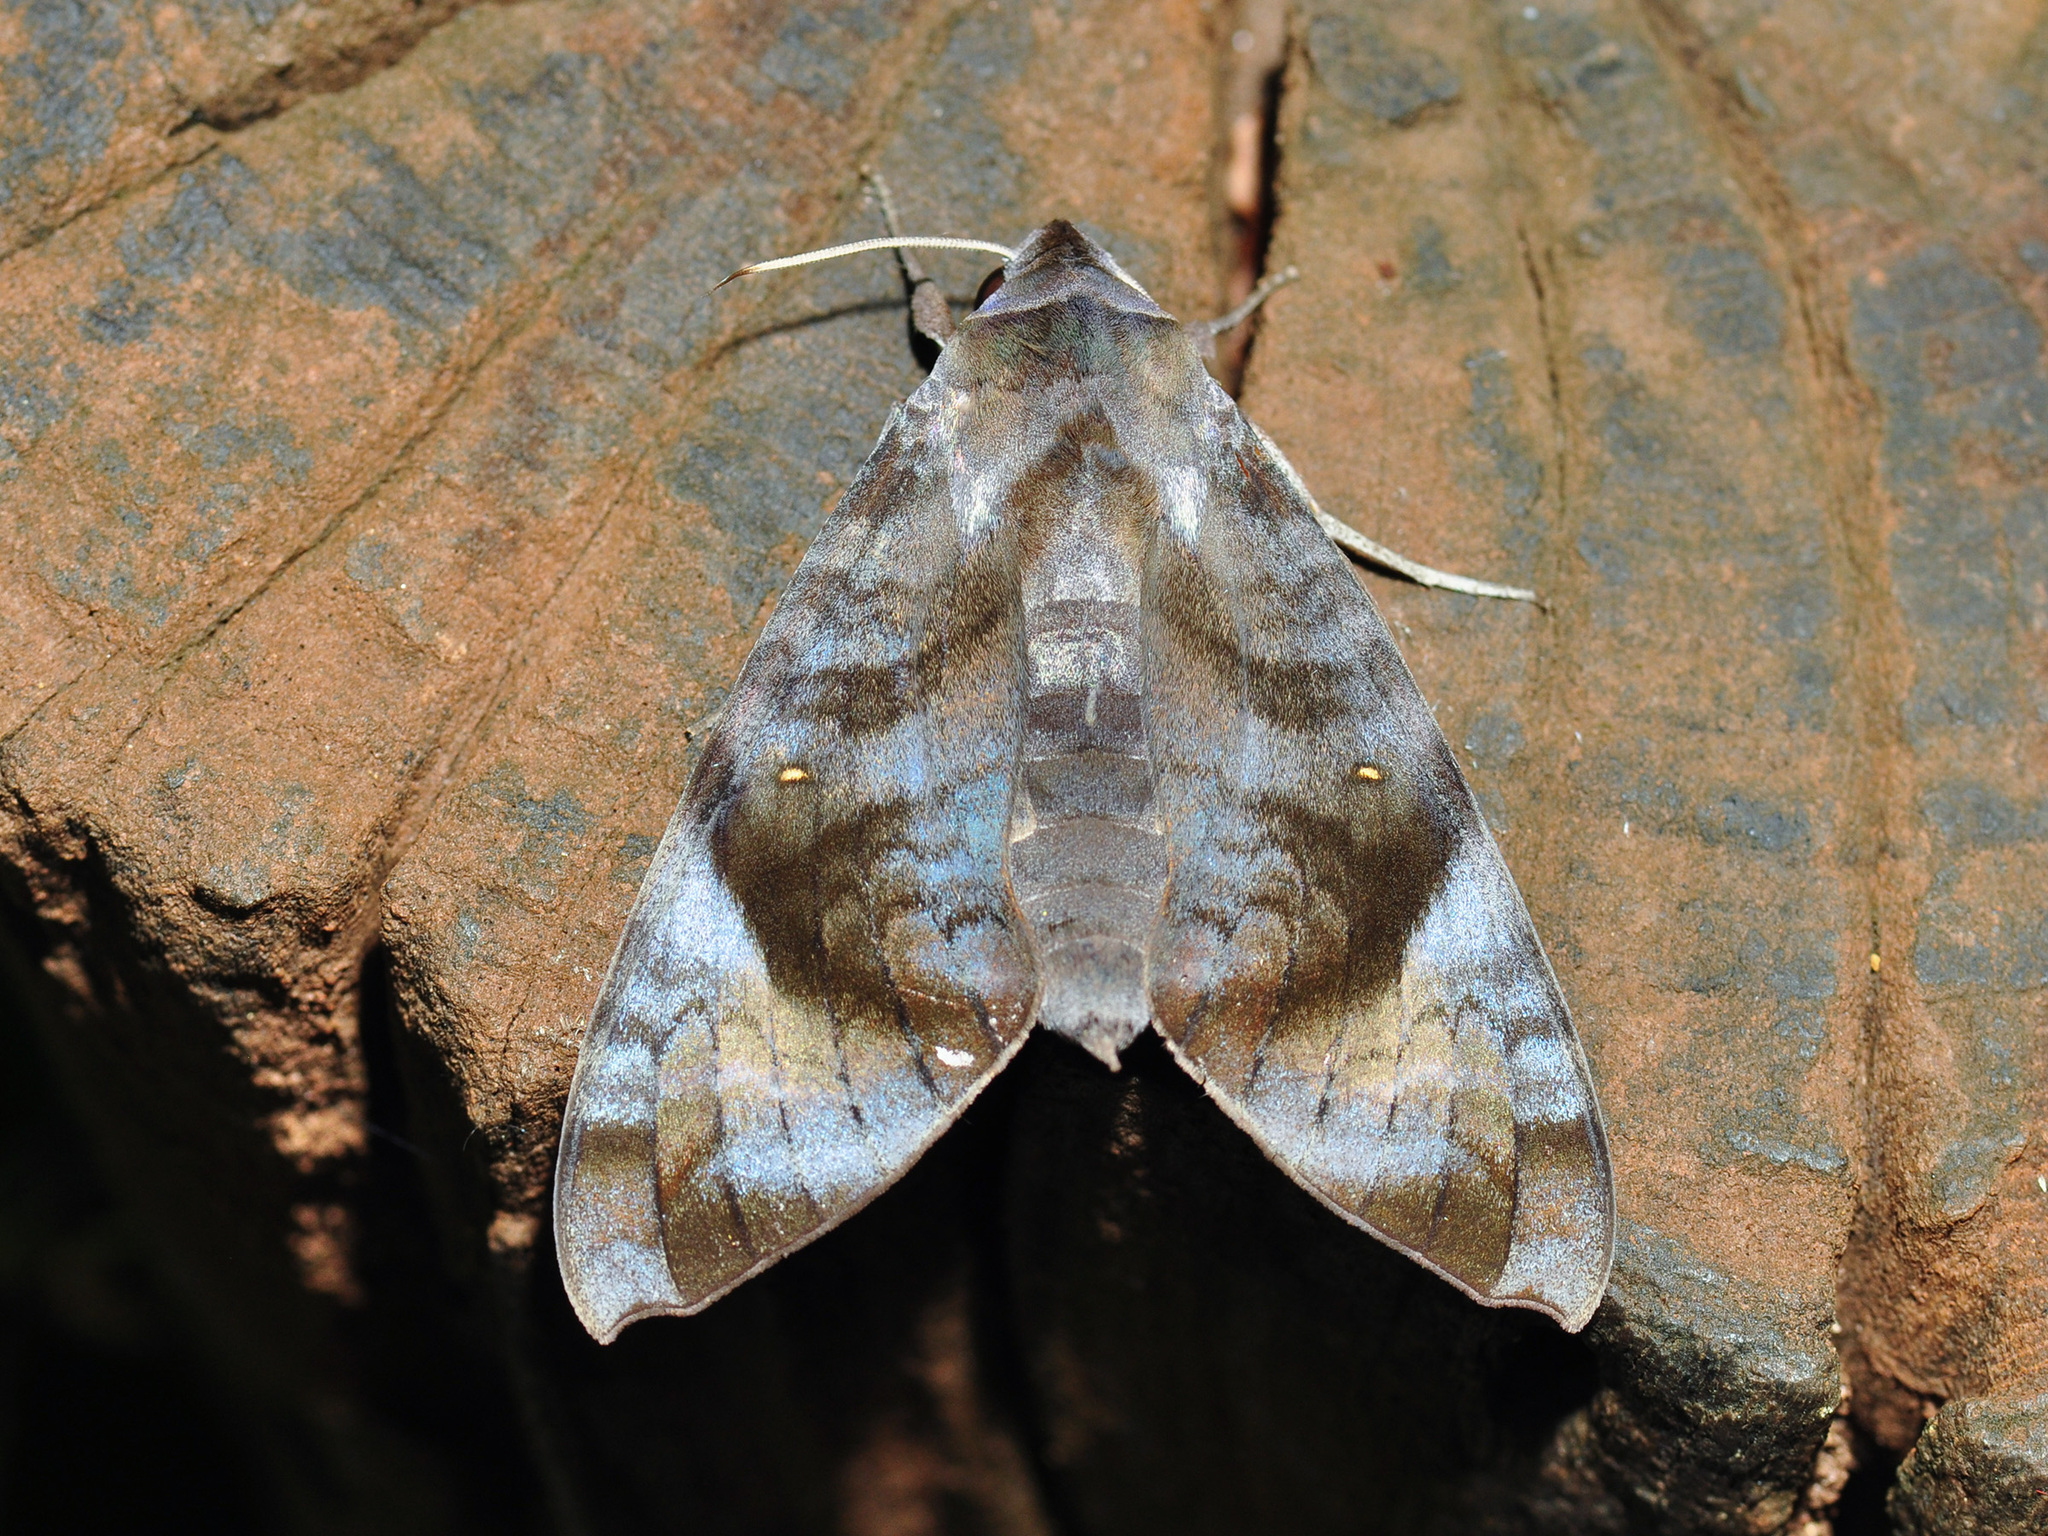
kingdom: Animalia
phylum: Arthropoda
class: Insecta
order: Lepidoptera
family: Sphingidae
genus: Acosmeryx
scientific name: Acosmeryx pseudonaga
